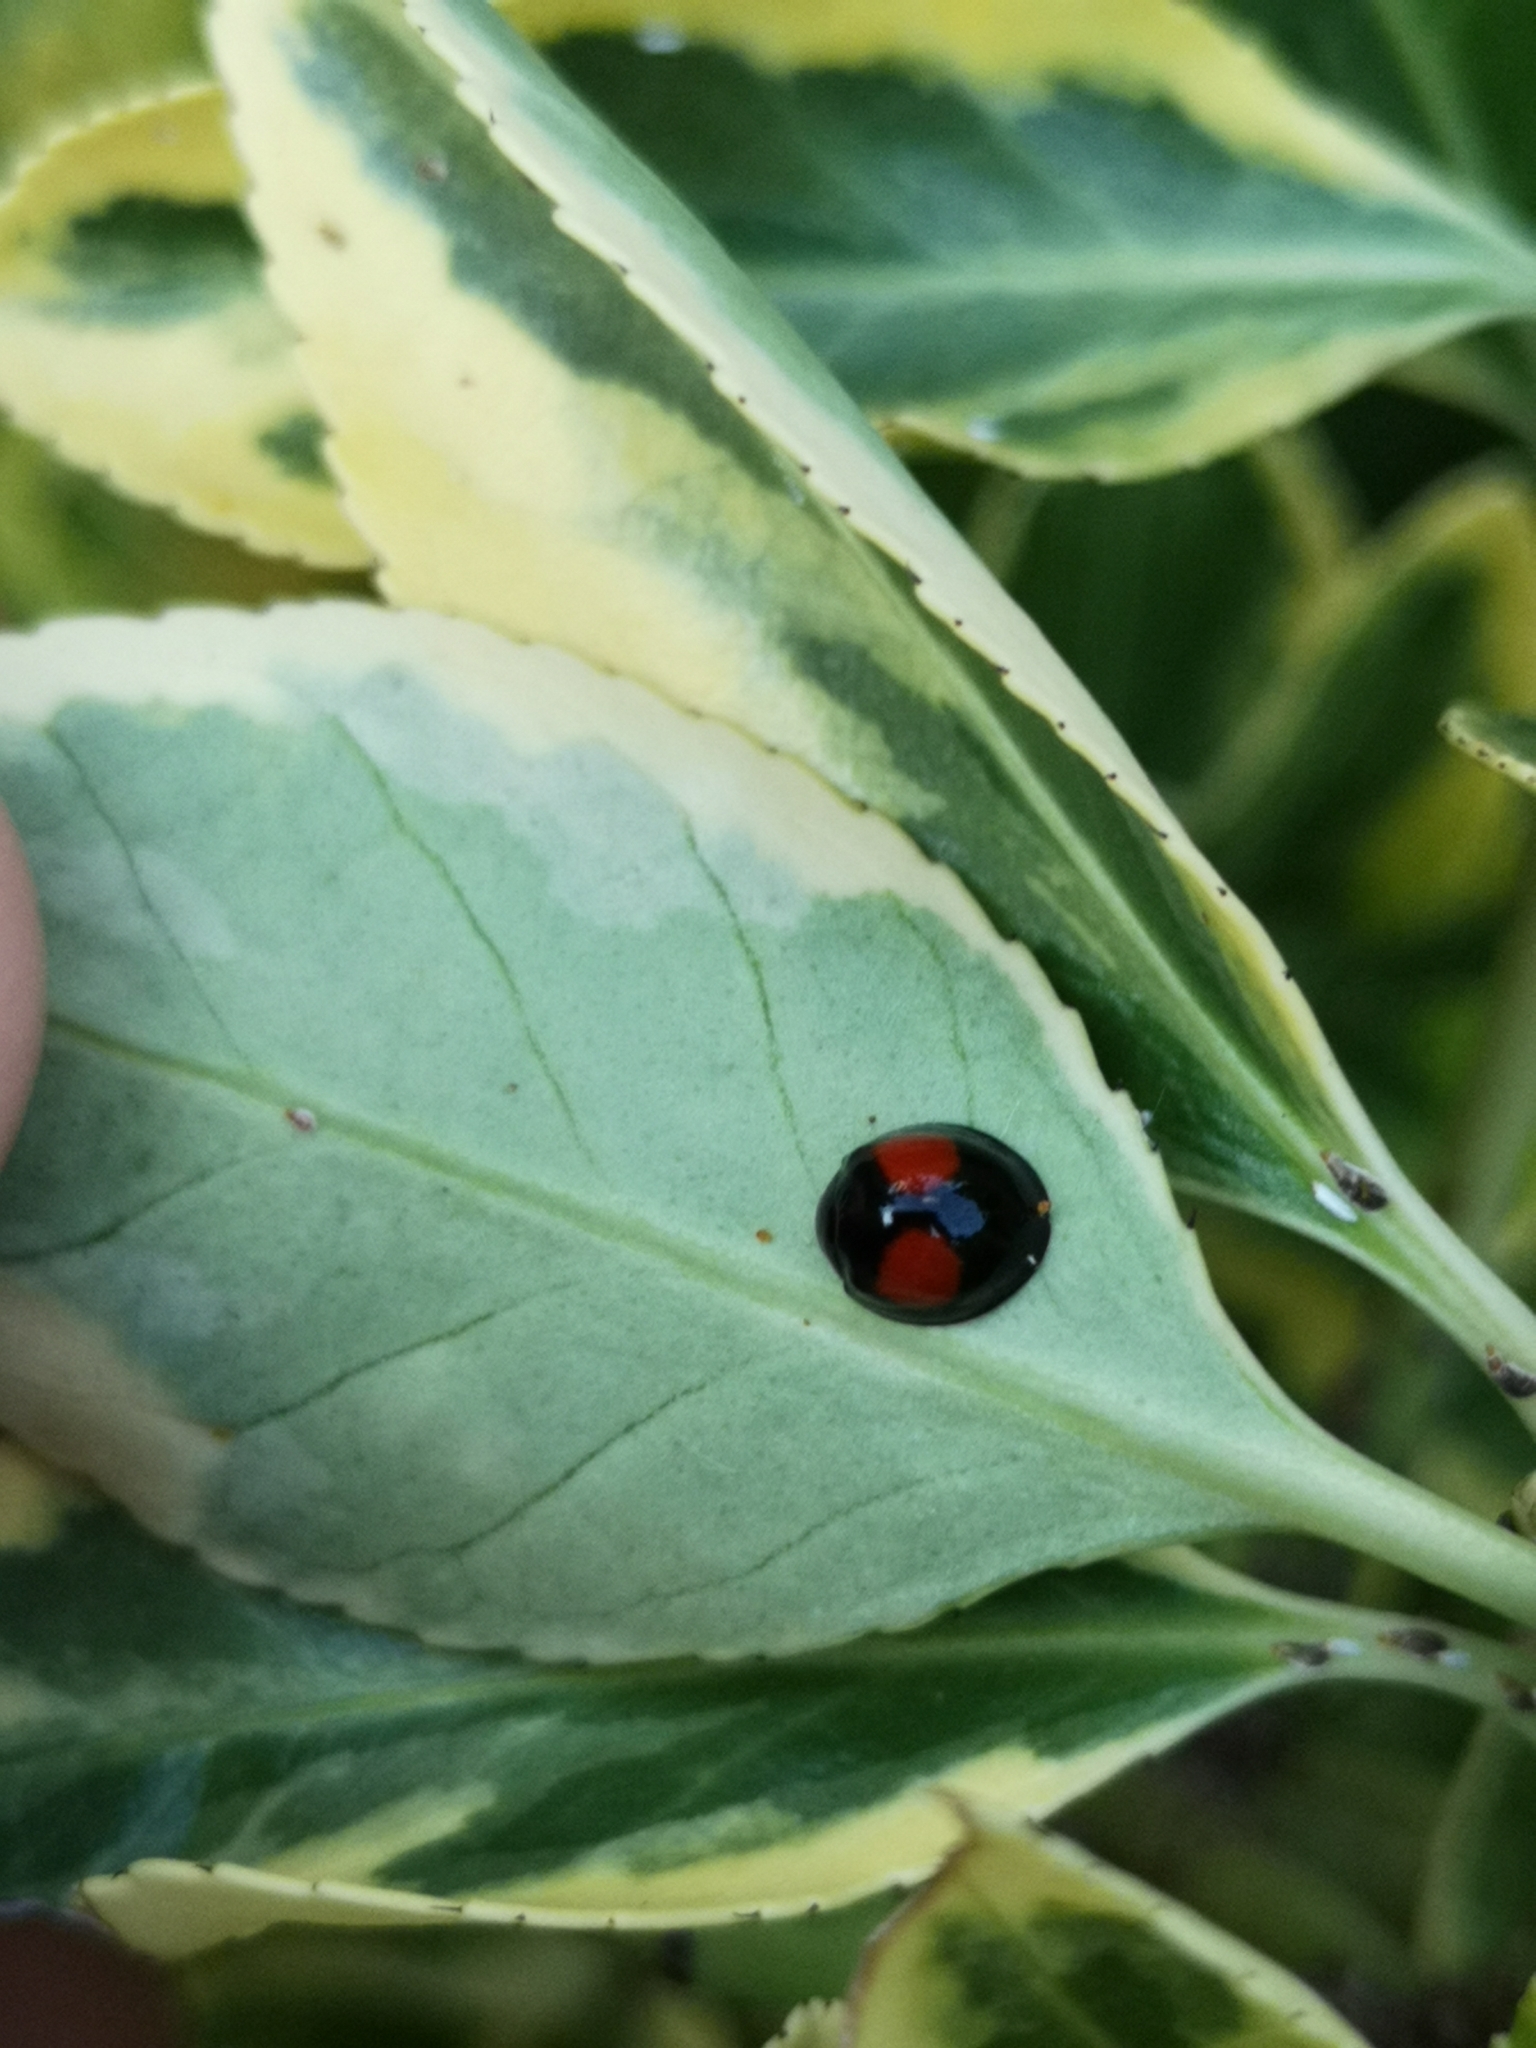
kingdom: Animalia
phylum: Arthropoda
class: Insecta
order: Coleoptera
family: Coccinellidae
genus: Chilocorus
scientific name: Chilocorus renipustulatus
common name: Kidney-spot ladybird
